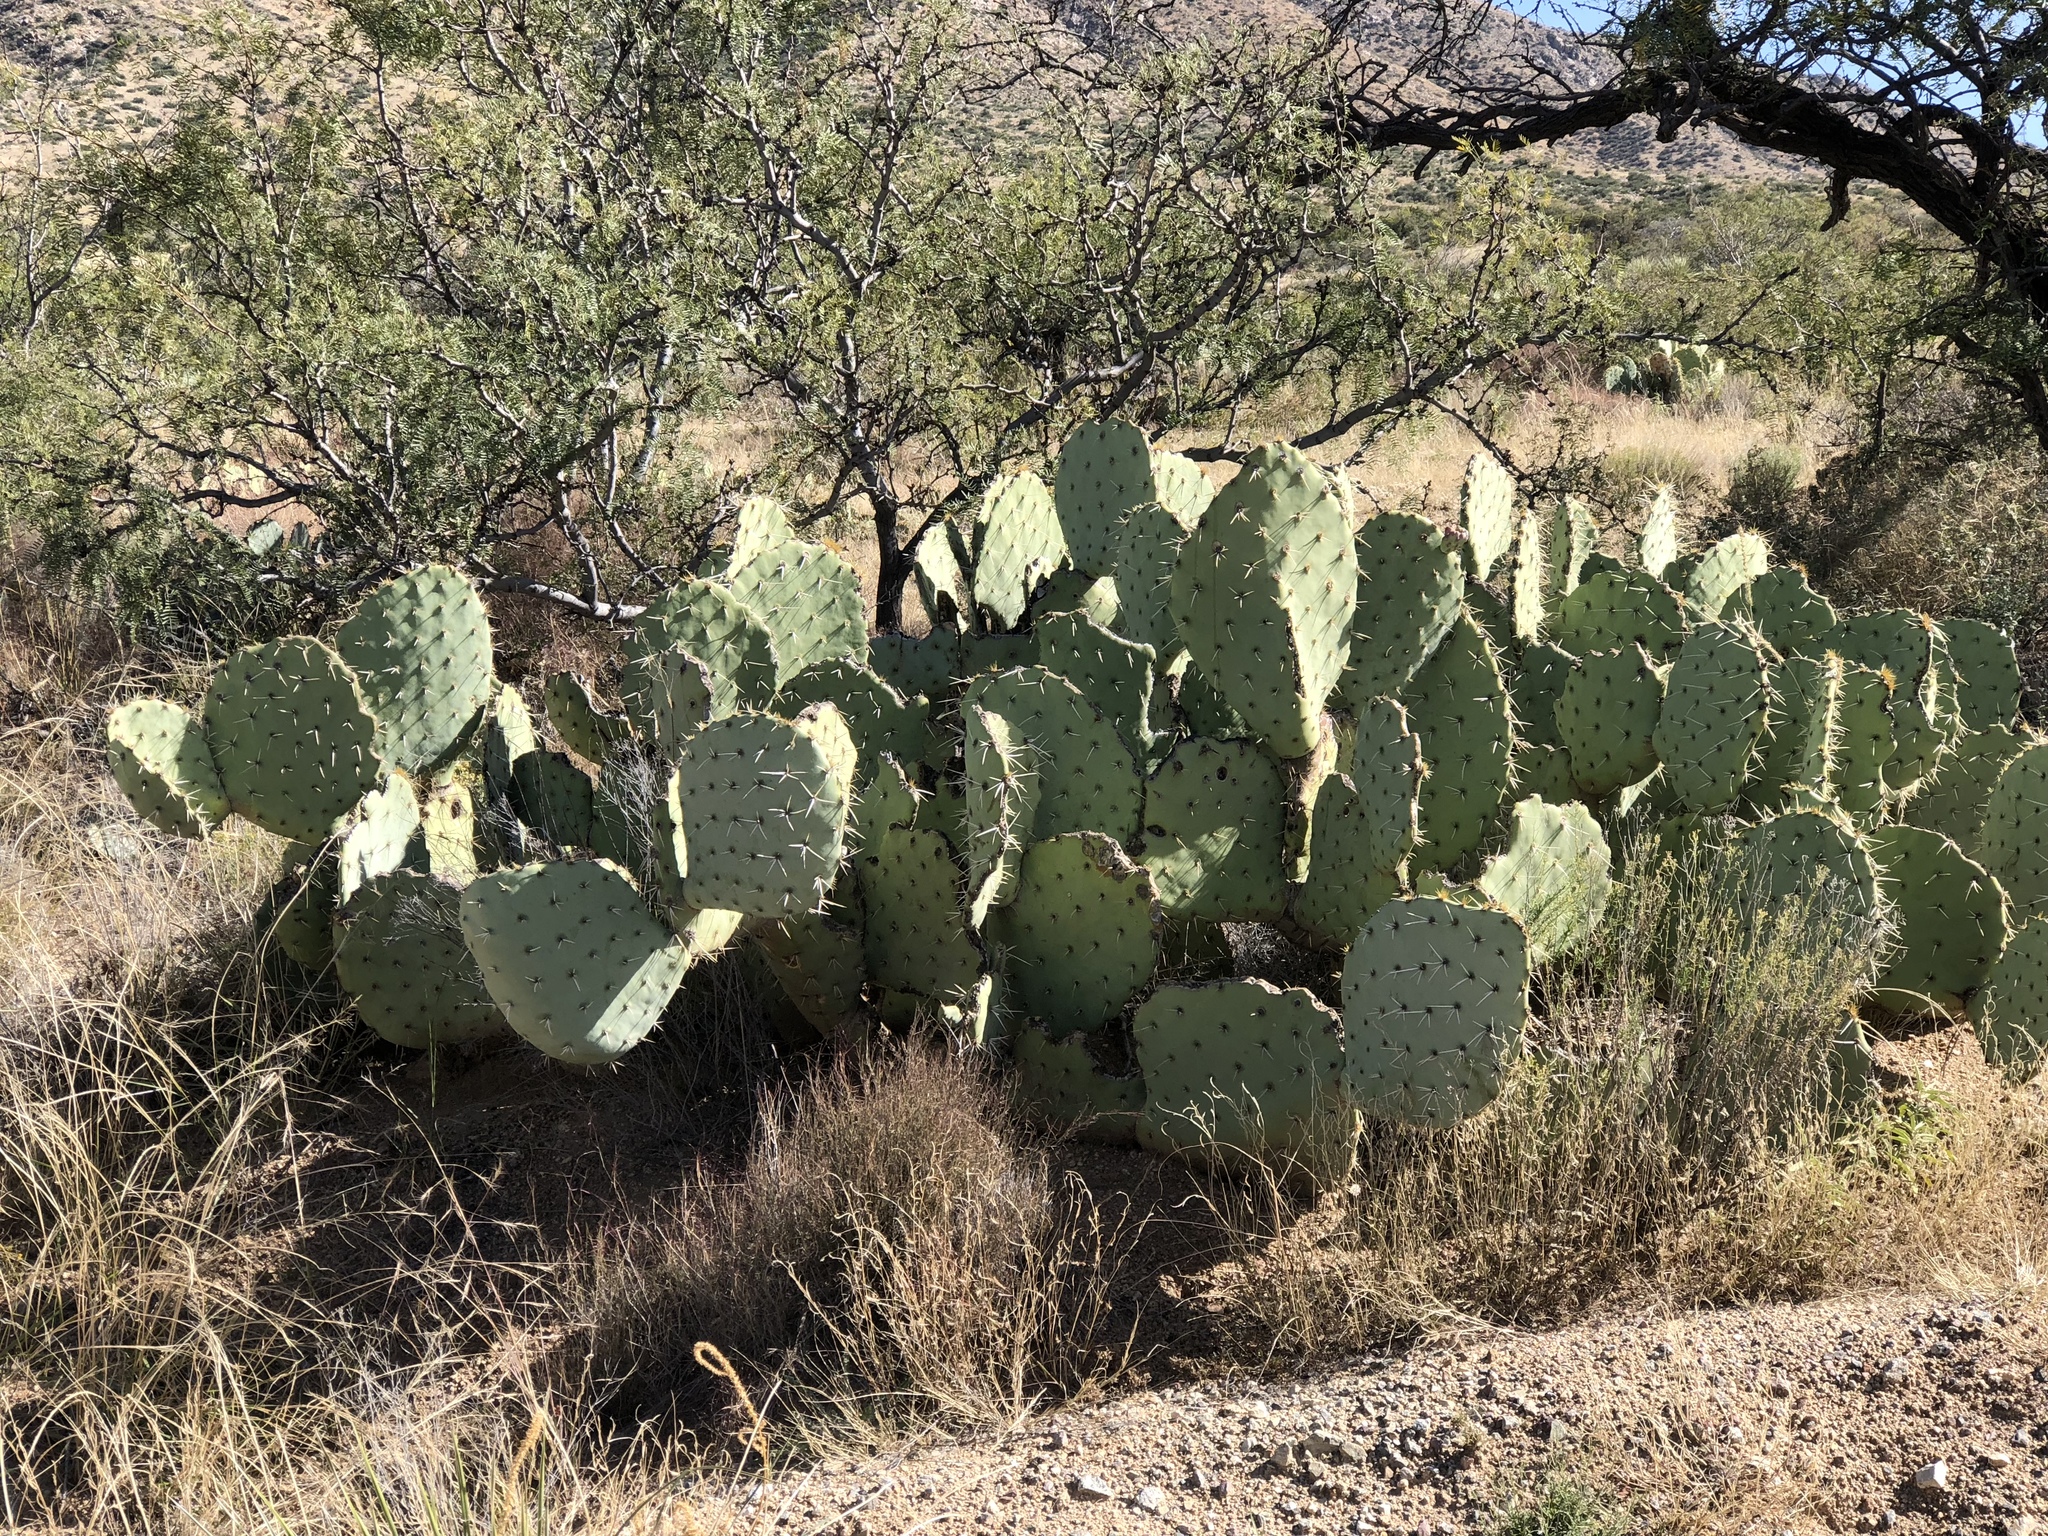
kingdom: Plantae
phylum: Tracheophyta
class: Magnoliopsida
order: Caryophyllales
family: Cactaceae
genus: Opuntia
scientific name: Opuntia engelmannii
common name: Cactus-apple
